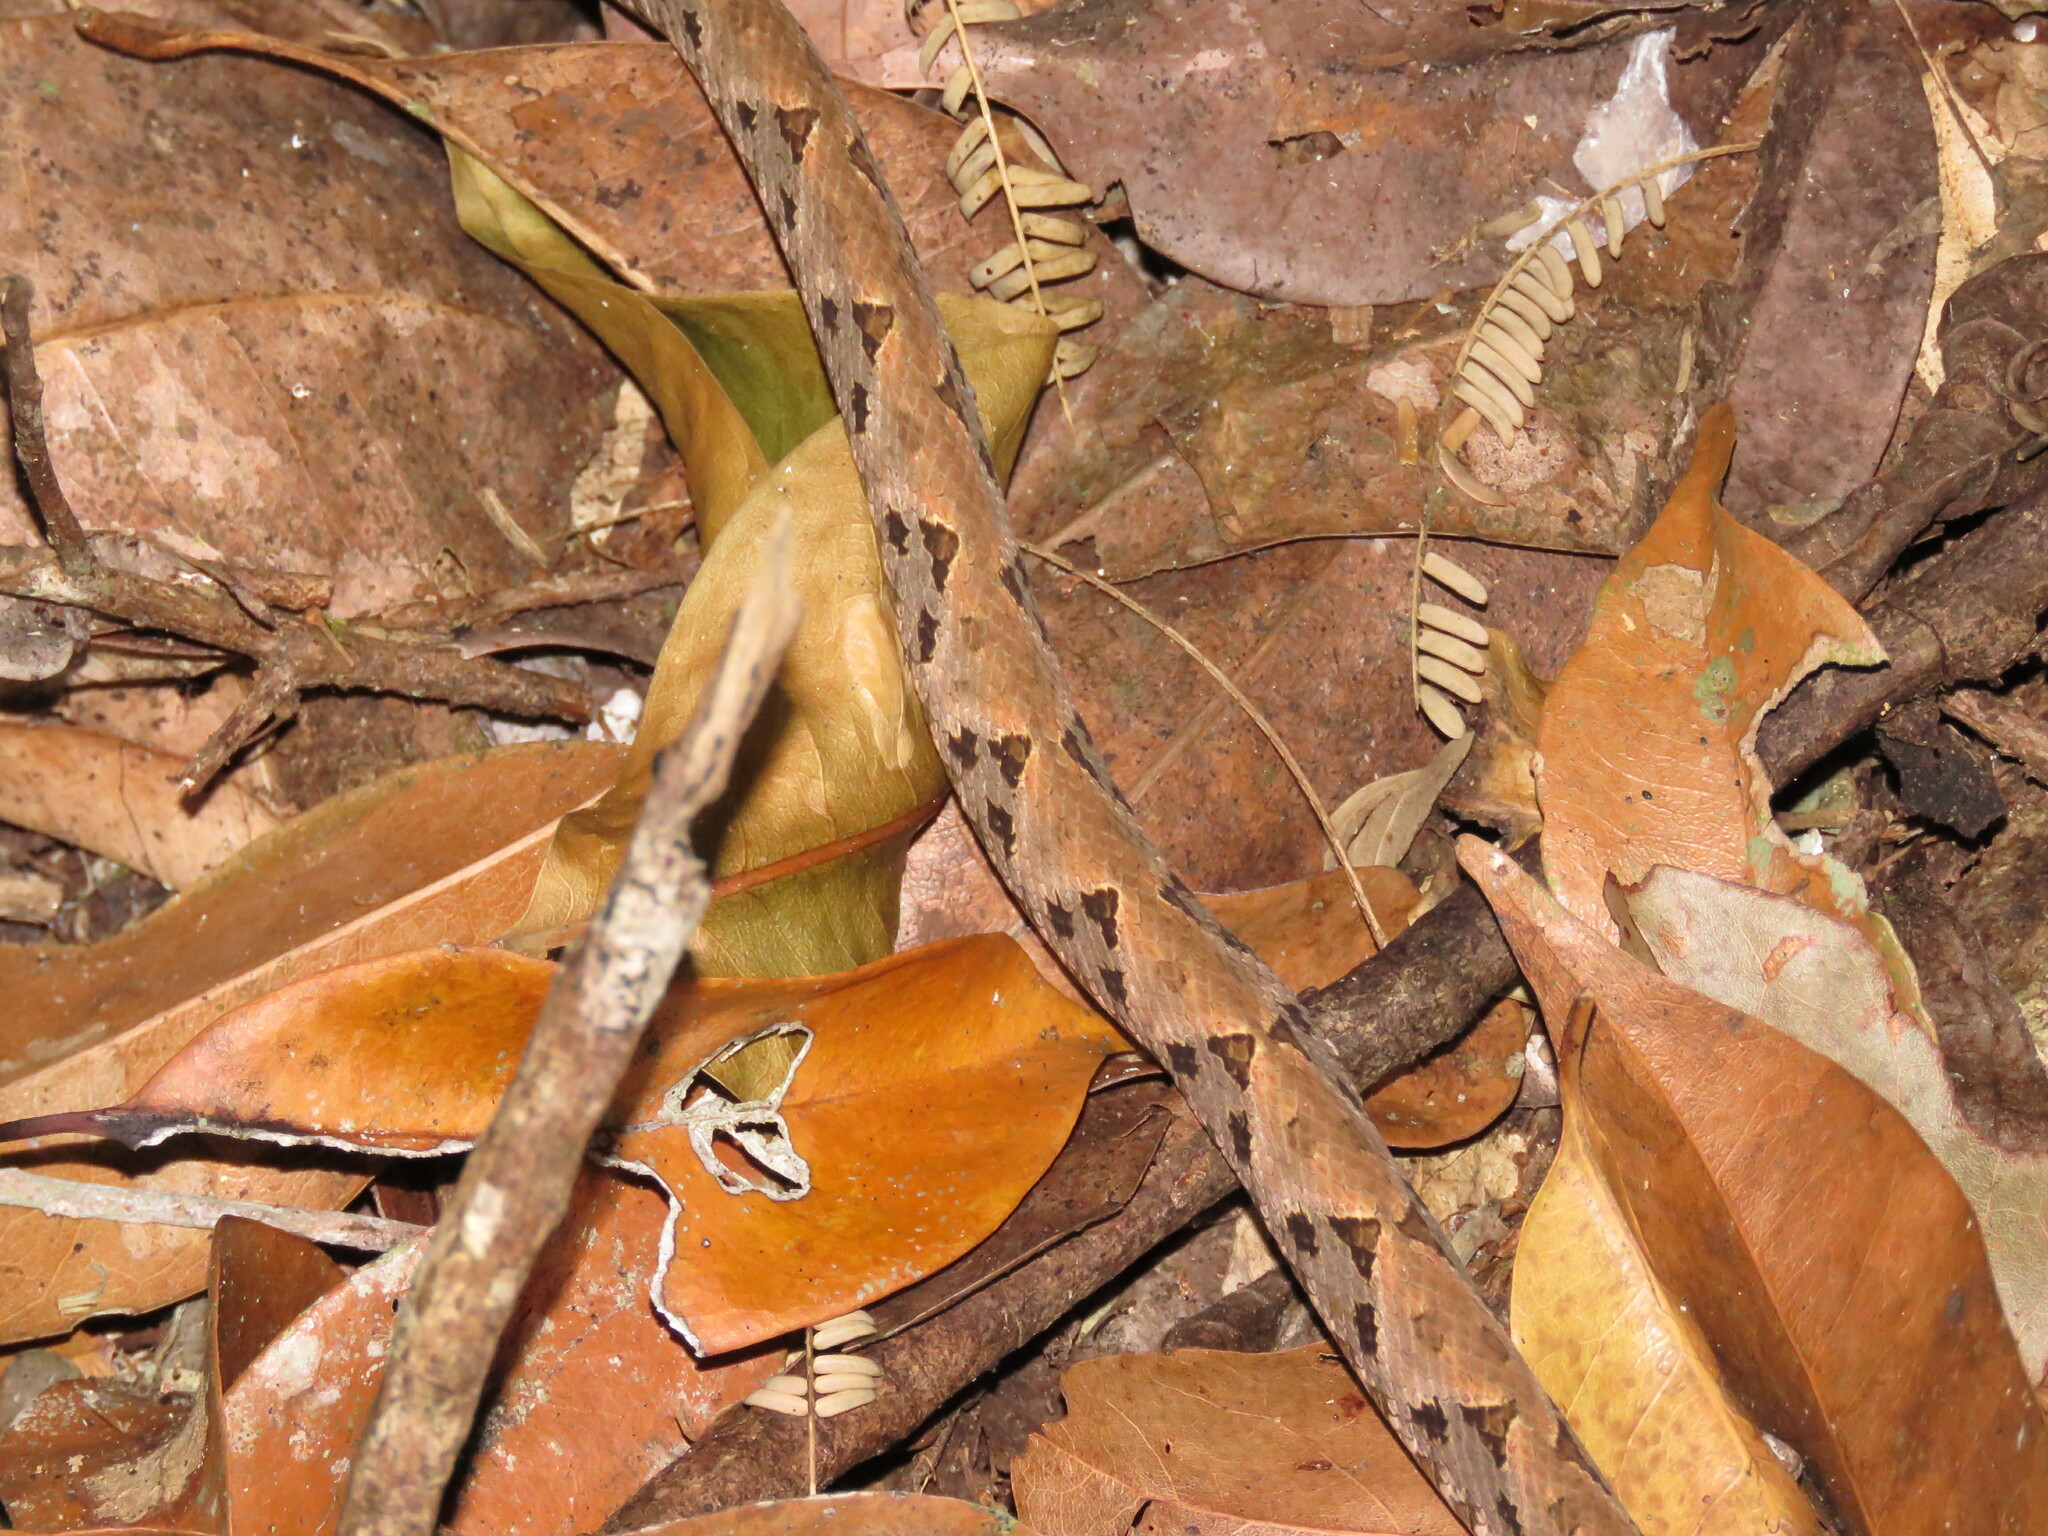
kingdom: Animalia
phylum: Chordata
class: Squamata
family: Viperidae
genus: Bothrops
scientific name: Bothrops asper
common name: Terciopelo
